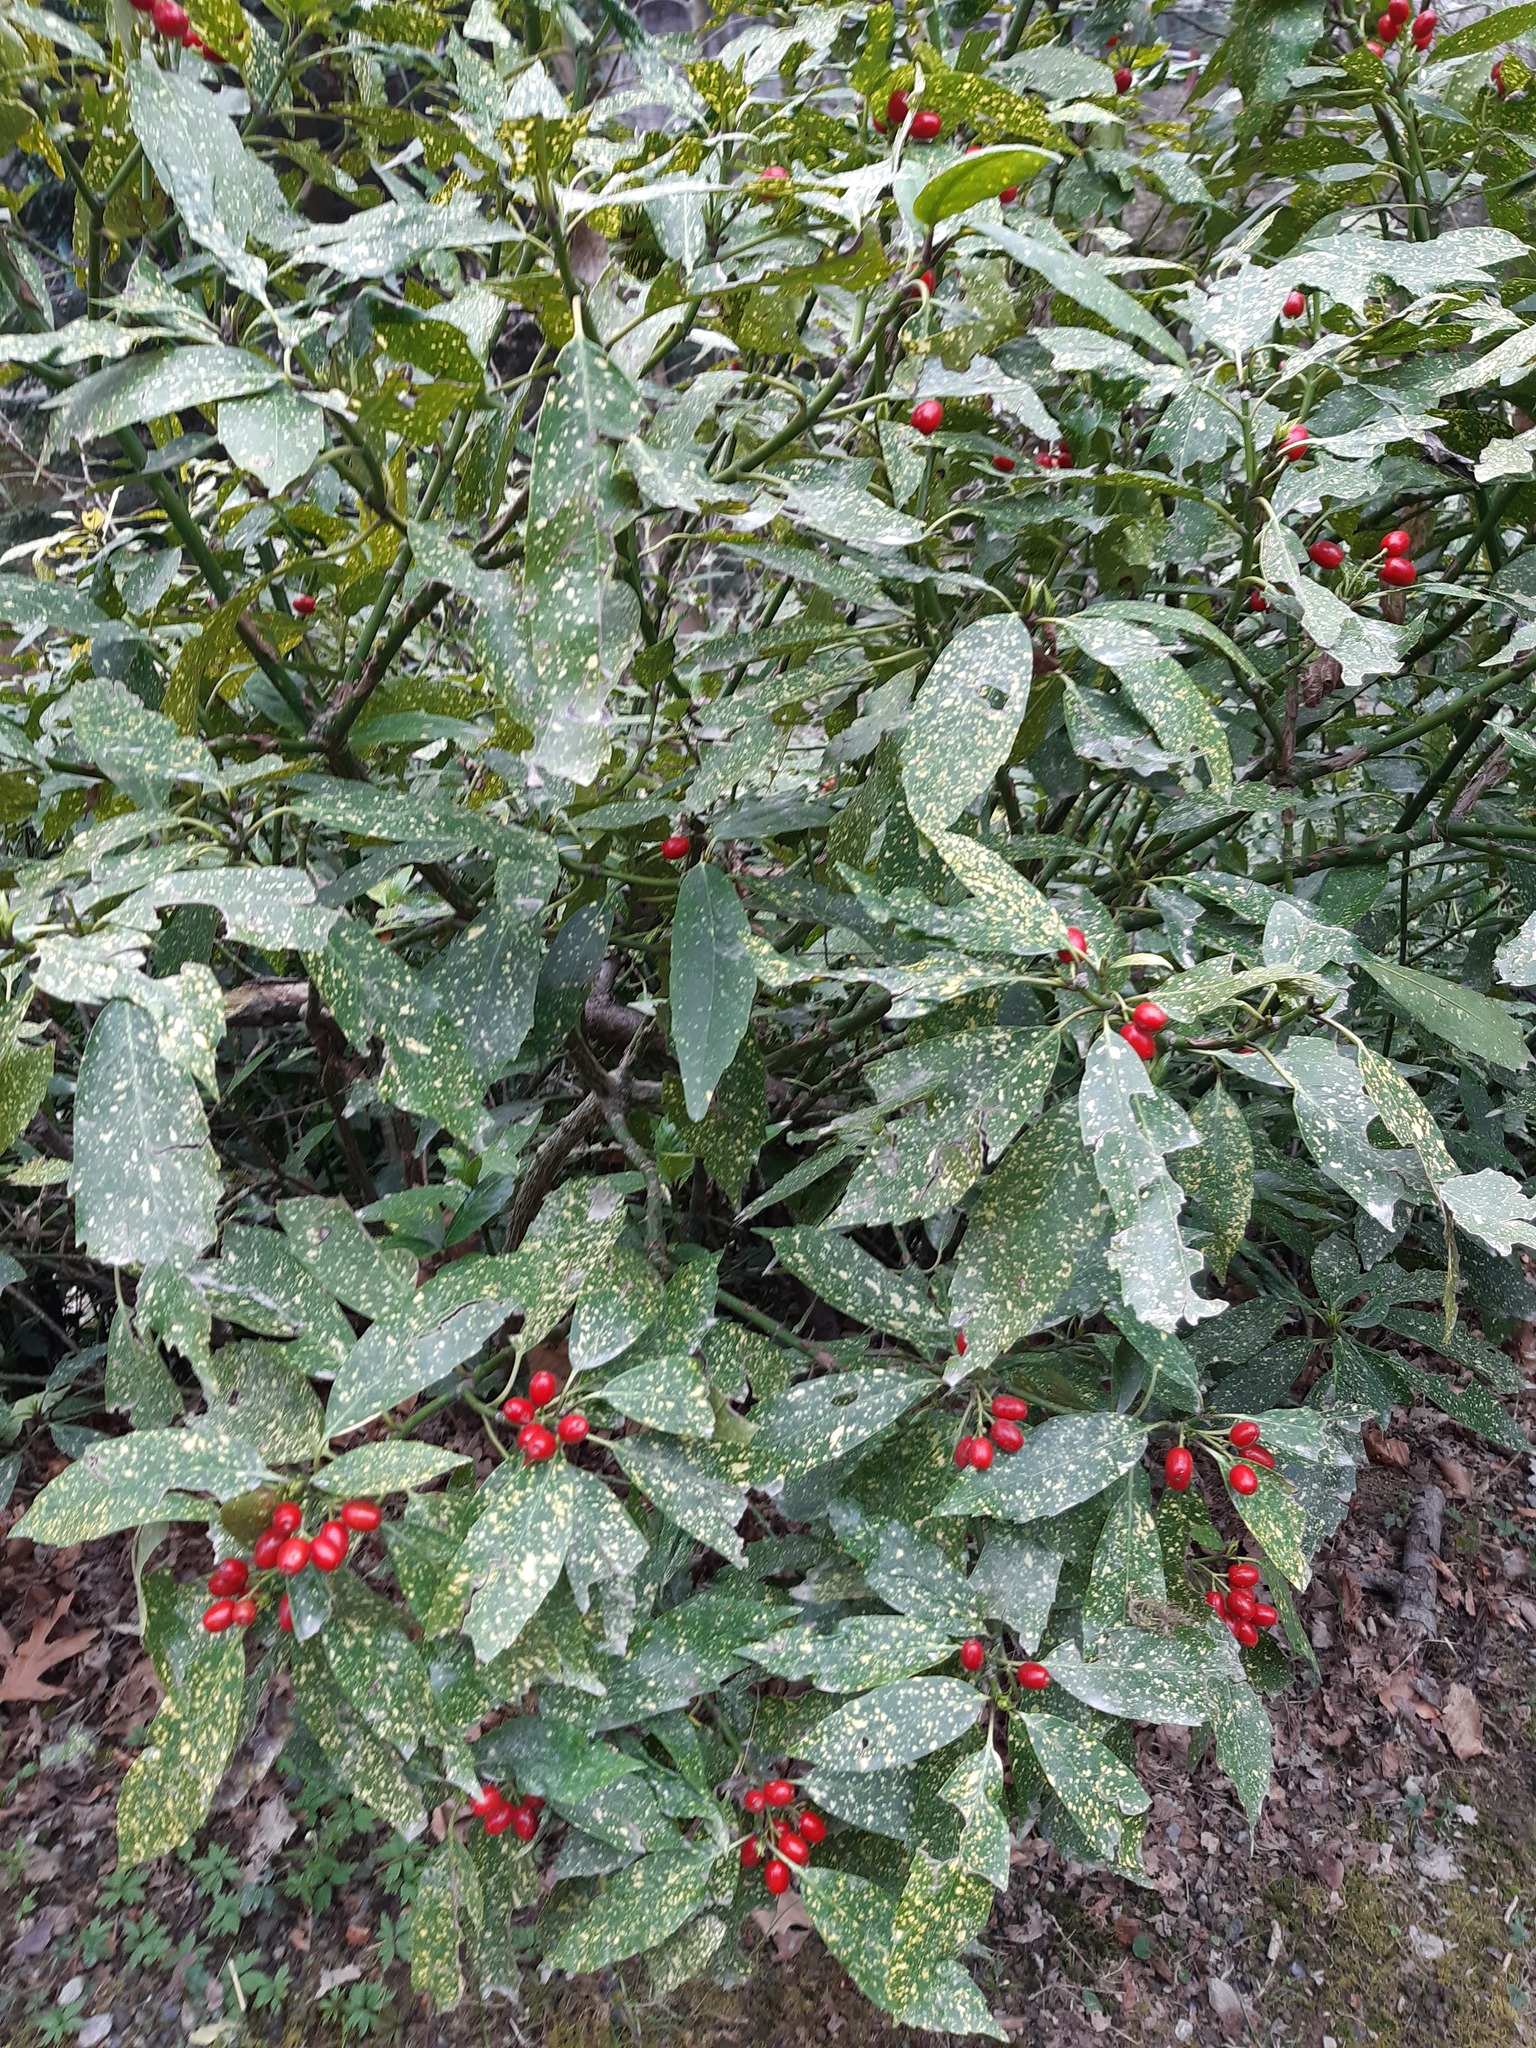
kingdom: Plantae
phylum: Tracheophyta
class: Magnoliopsida
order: Garryales
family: Garryaceae
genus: Aucuba
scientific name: Aucuba japonica
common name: Spotted-laurel
